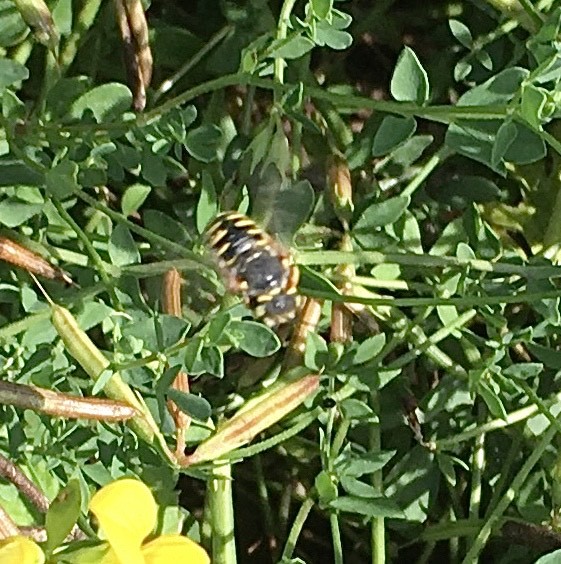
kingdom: Animalia
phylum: Arthropoda
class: Insecta
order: Hymenoptera
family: Megachilidae
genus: Anthidium
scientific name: Anthidium oblongatum
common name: Oblong wool carder bee
